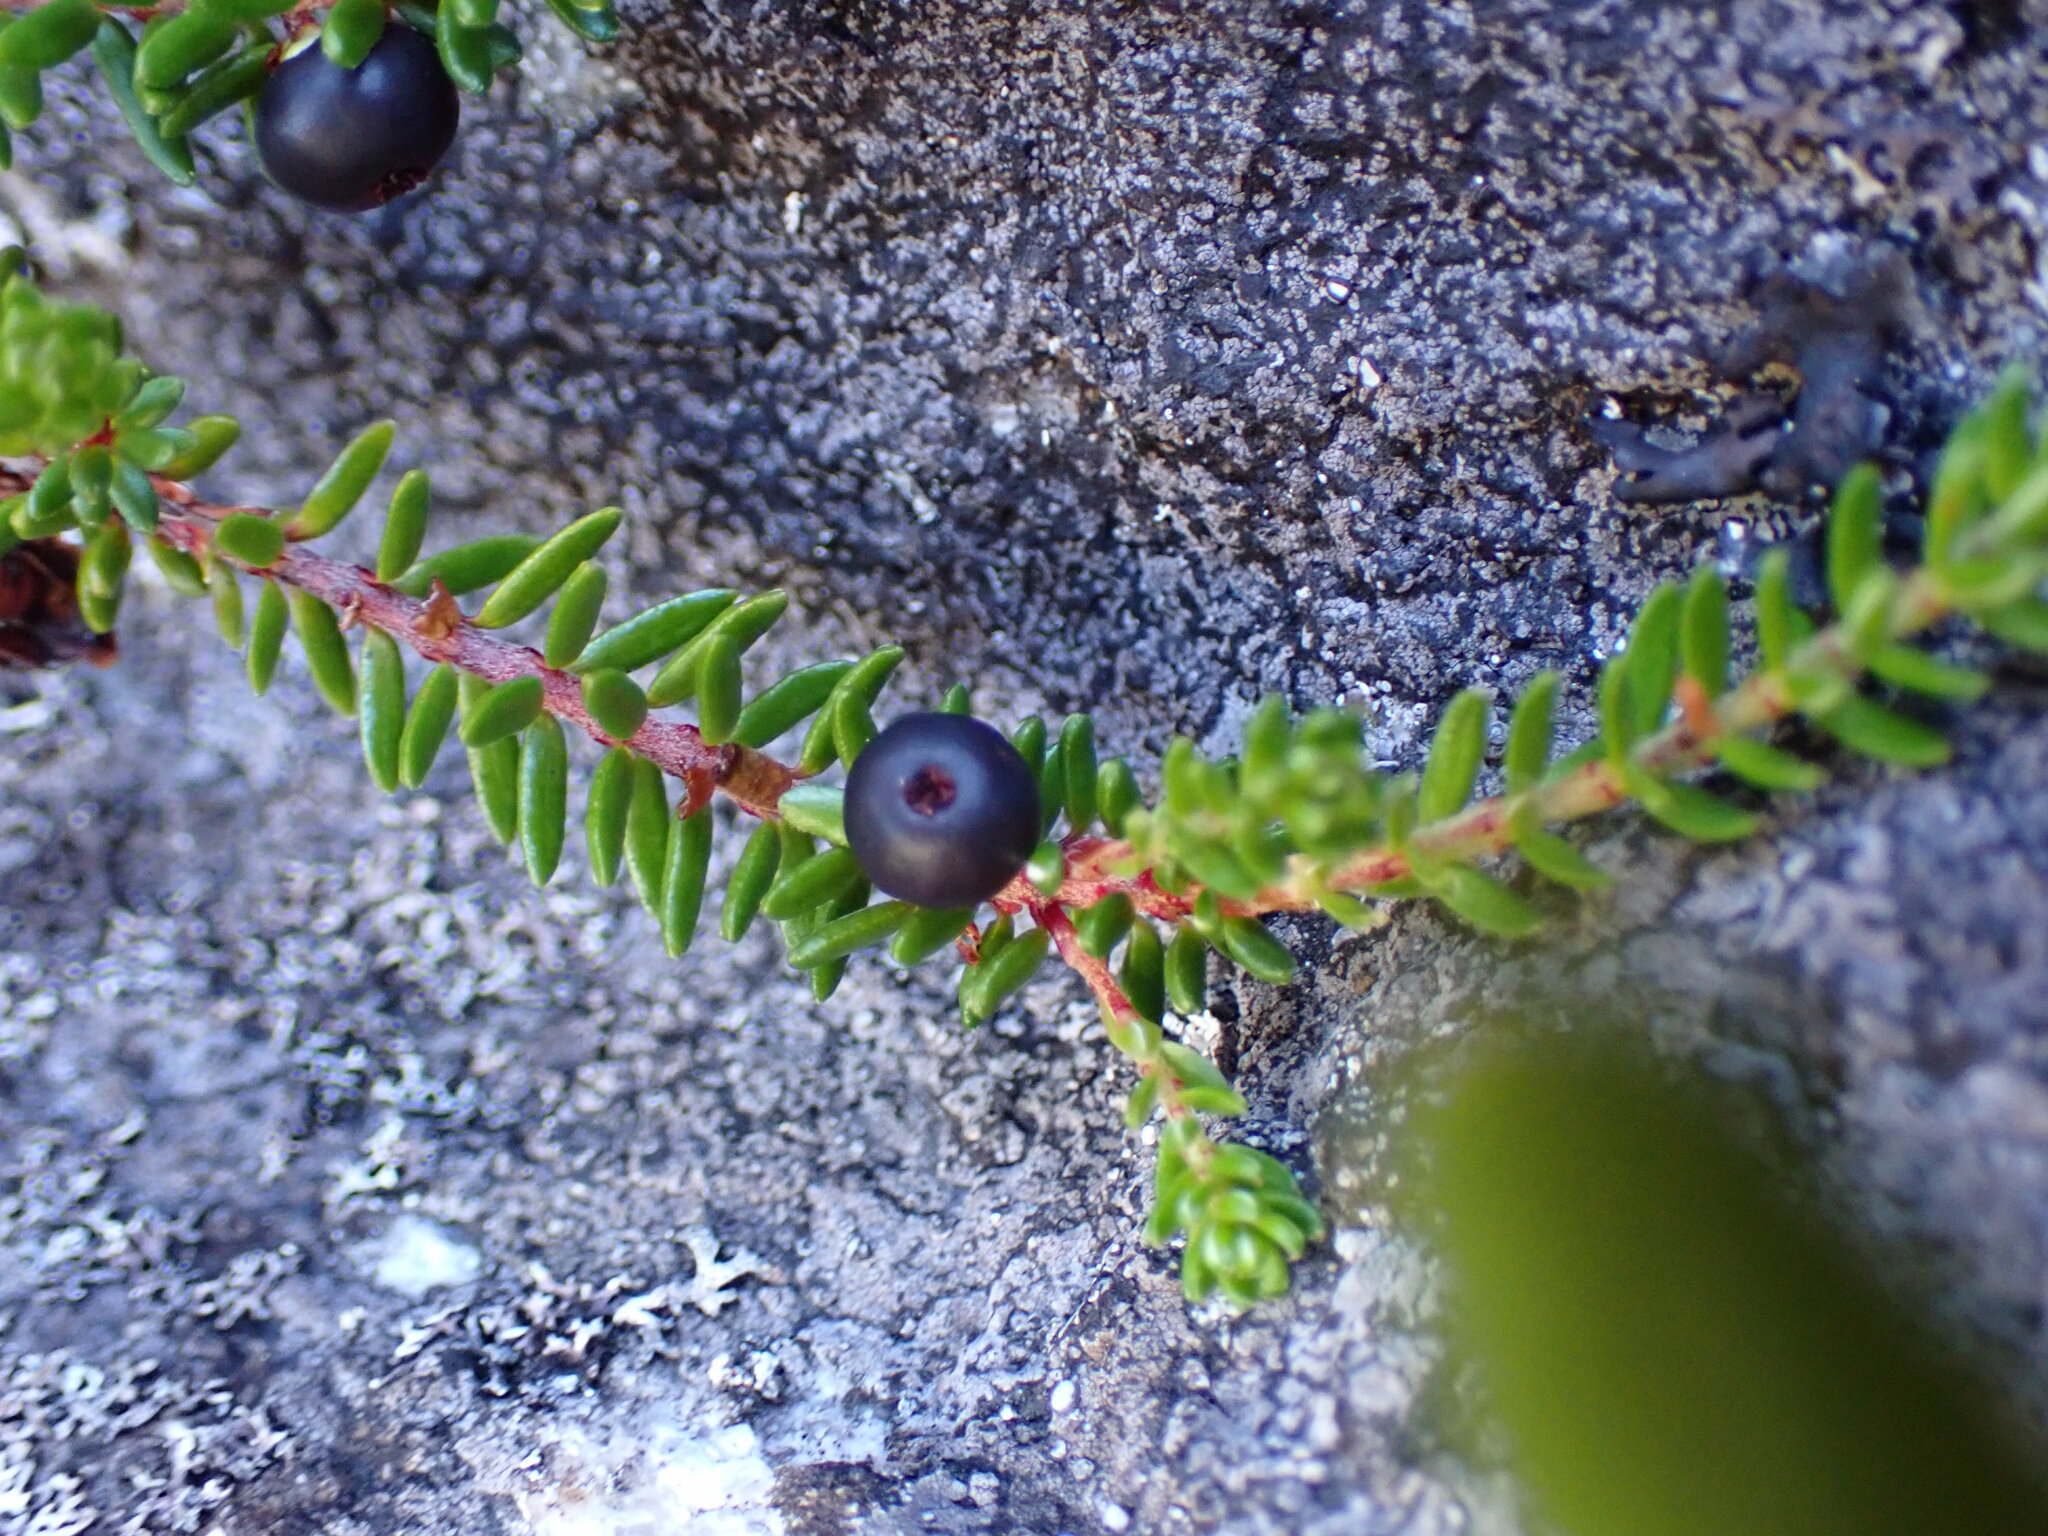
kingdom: Plantae
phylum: Tracheophyta
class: Magnoliopsida
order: Ericales
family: Ericaceae
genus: Empetrum
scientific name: Empetrum nigrum
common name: Black crowberry
